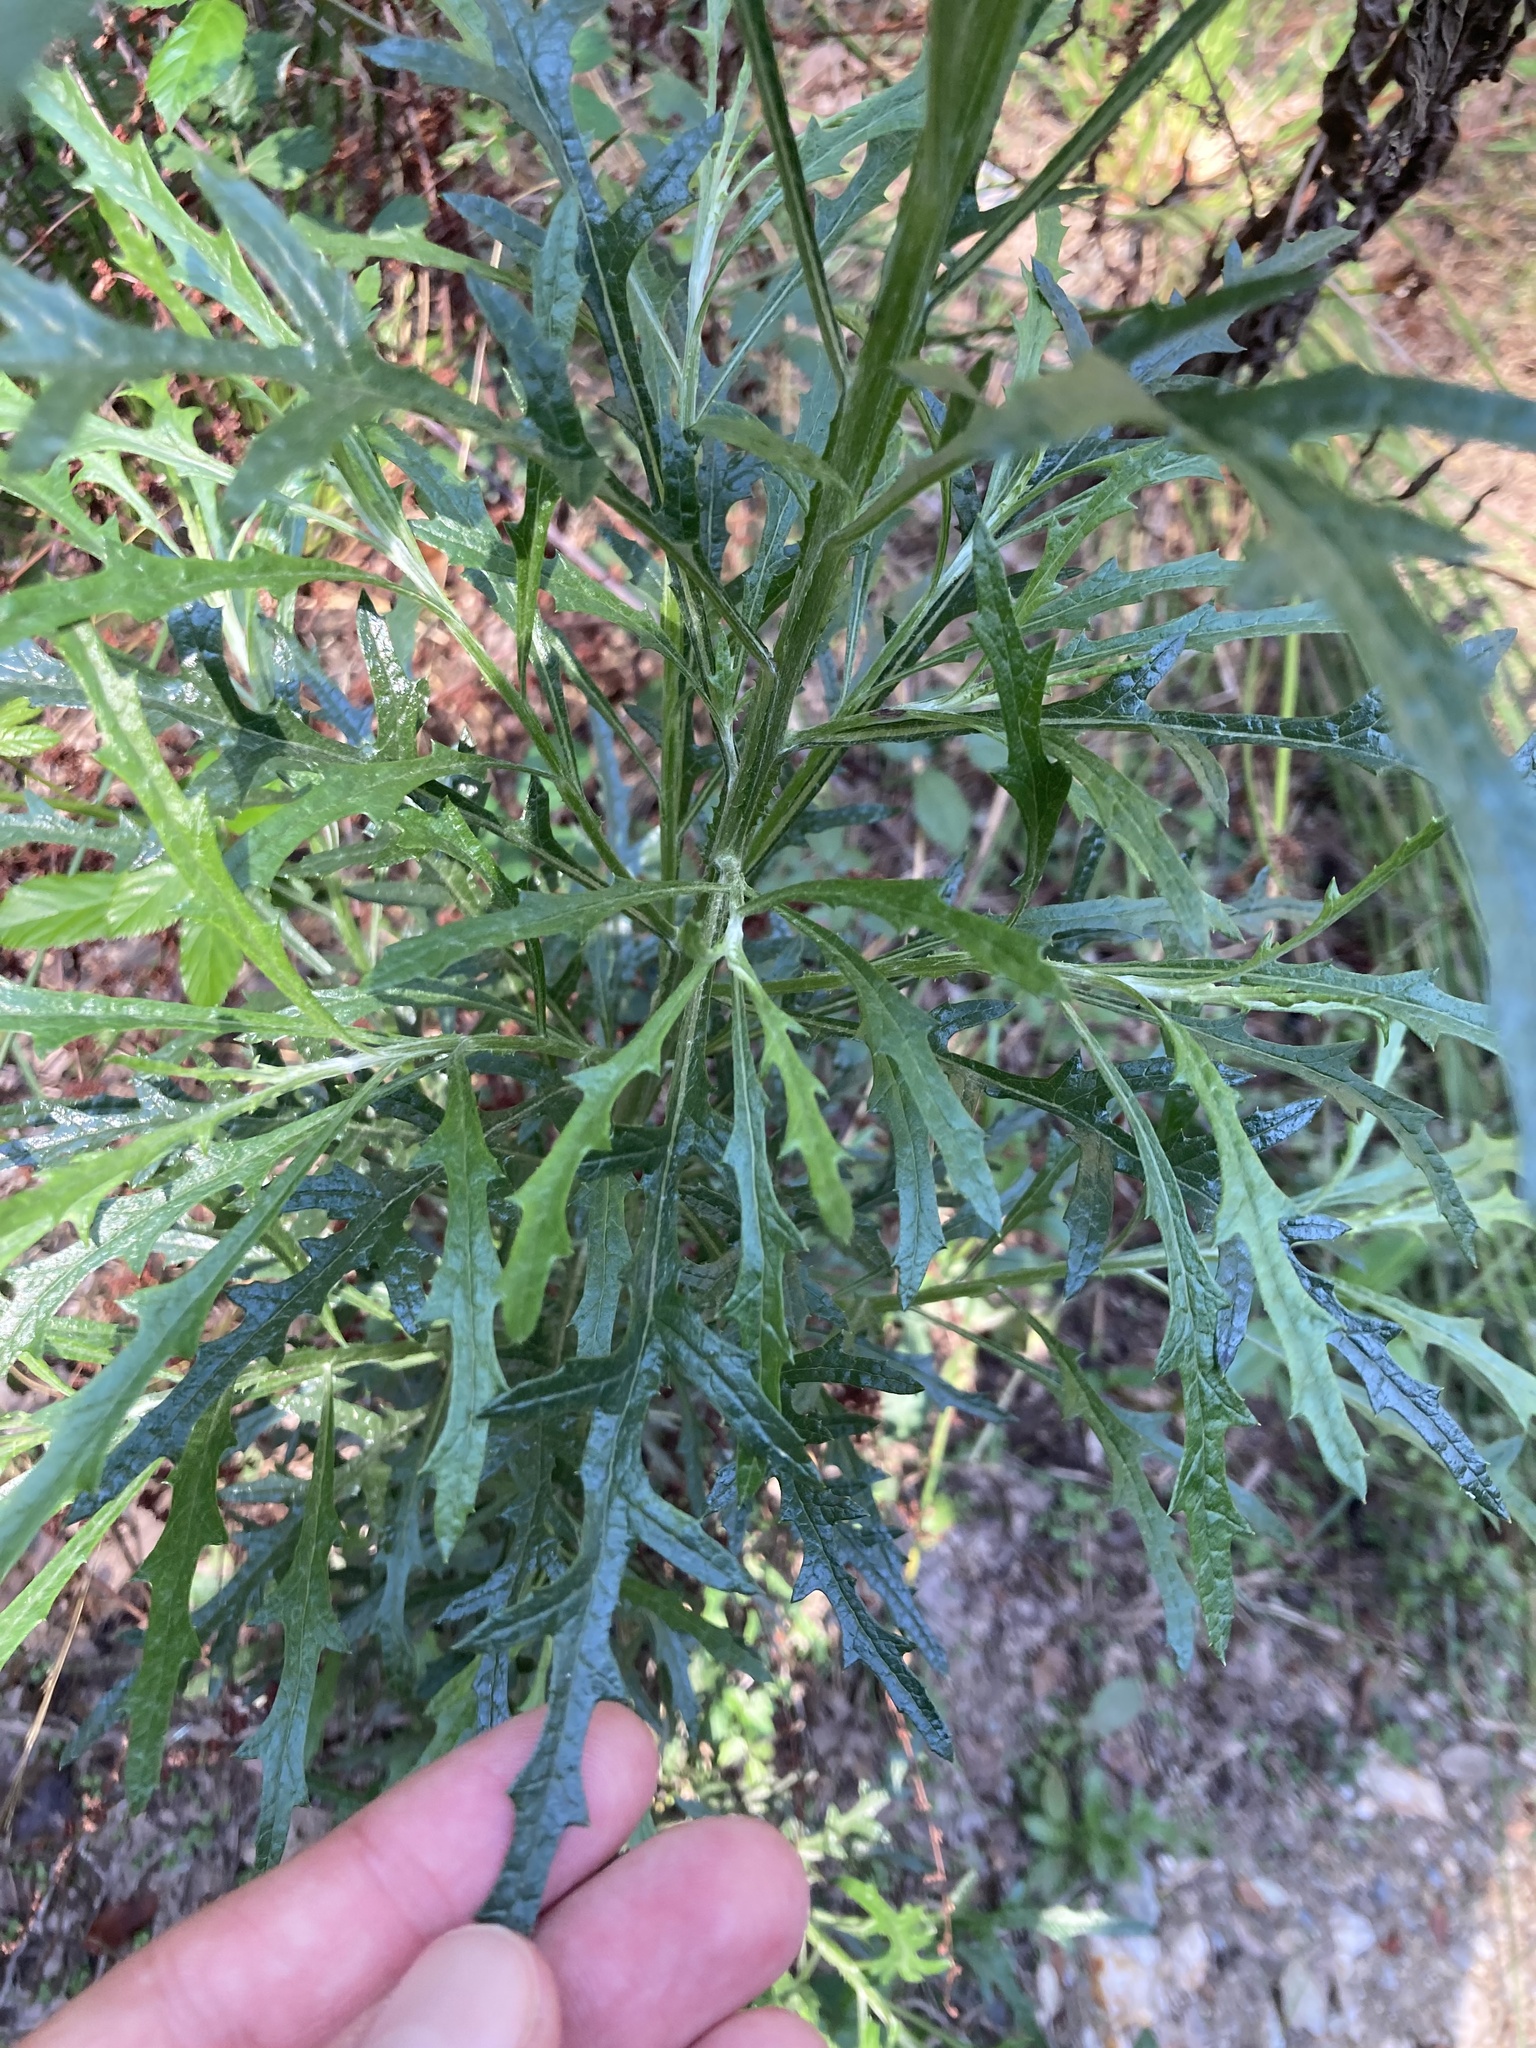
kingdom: Plantae
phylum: Tracheophyta
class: Magnoliopsida
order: Asterales
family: Asteraceae
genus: Senecio
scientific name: Senecio pterophorus
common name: Shoddy ragwort
